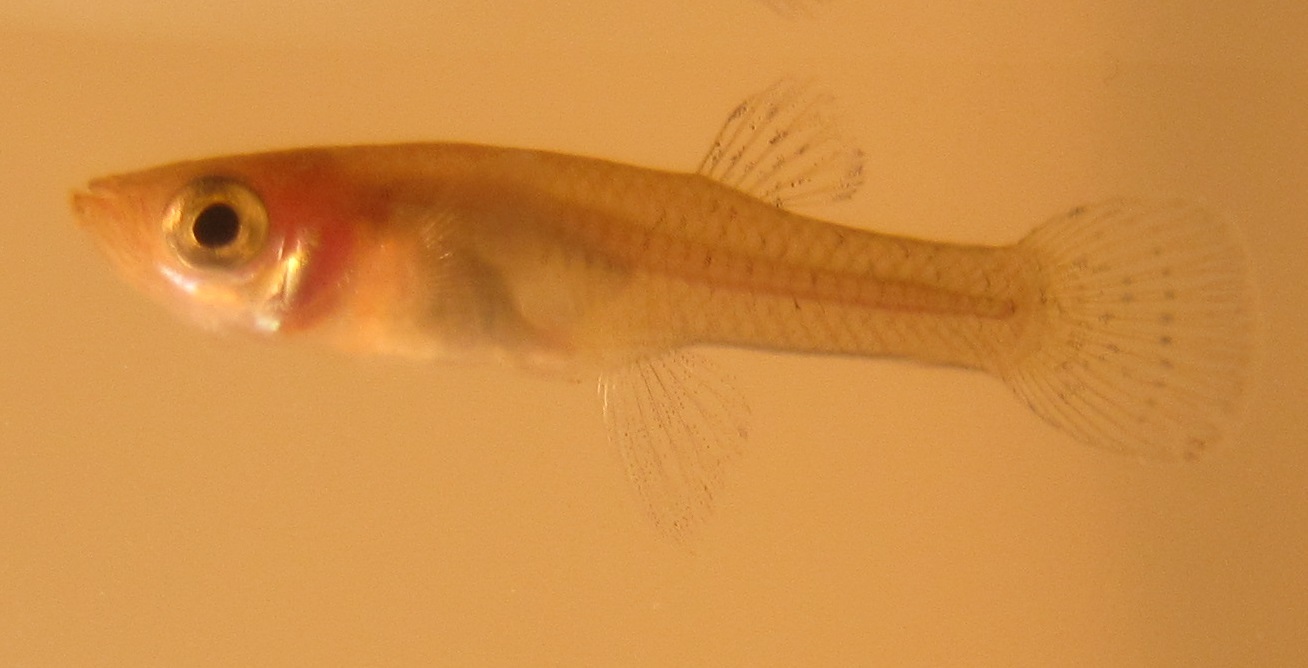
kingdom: Animalia
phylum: Chordata
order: Cyprinodontiformes
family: Poeciliidae
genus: Gambusia
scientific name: Gambusia holbrooki
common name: Eastern mosquitofish
